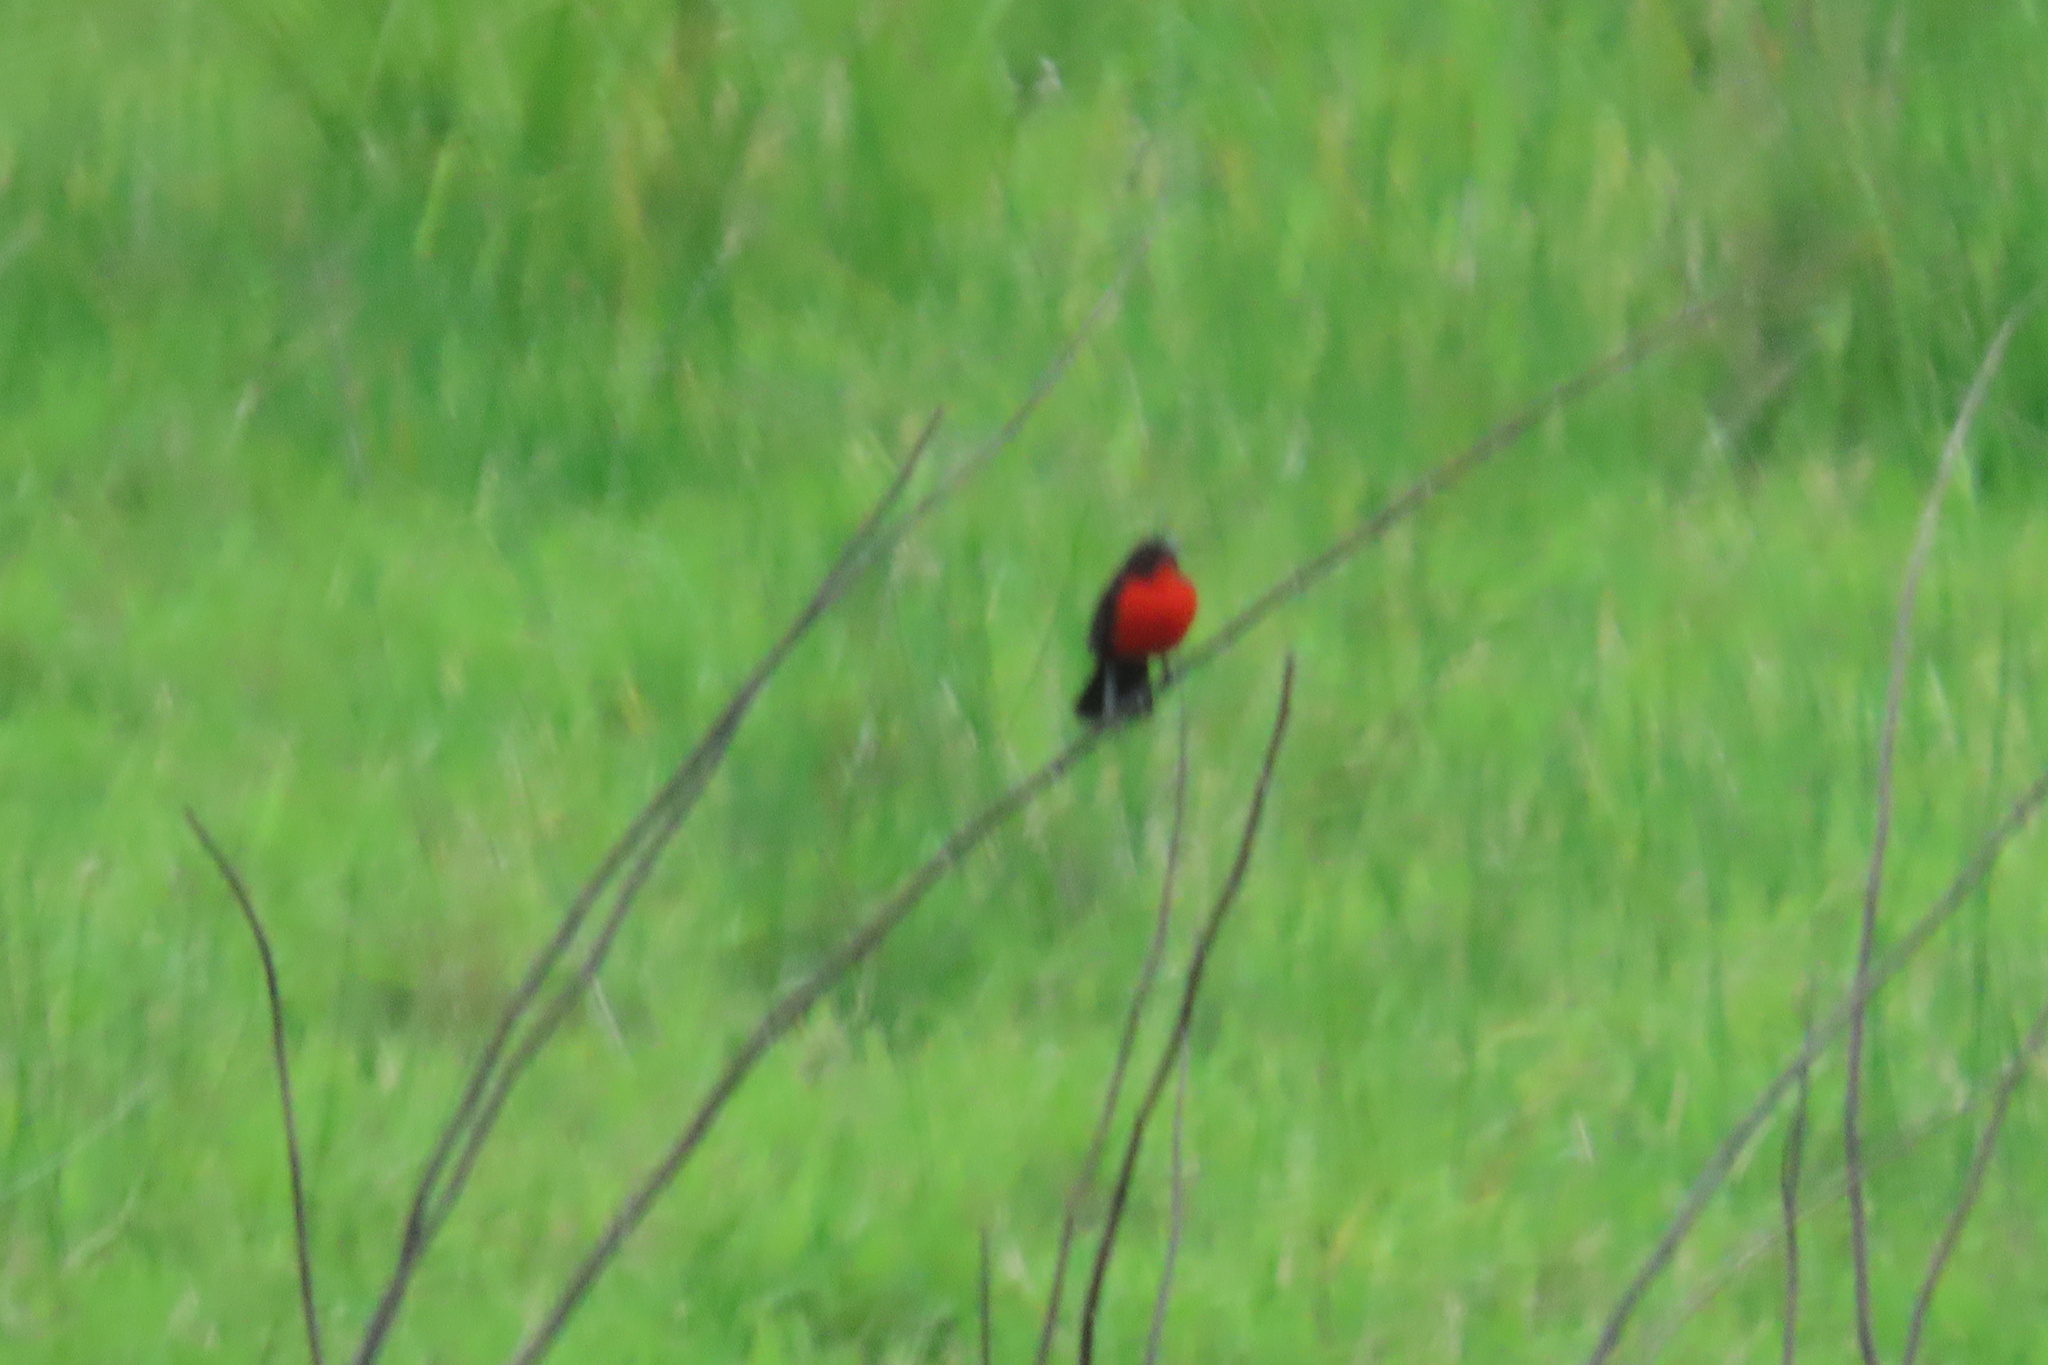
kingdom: Animalia
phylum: Chordata
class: Aves
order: Passeriformes
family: Icteridae
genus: Sturnella
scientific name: Sturnella militaris
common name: Red-breasted blackbird
